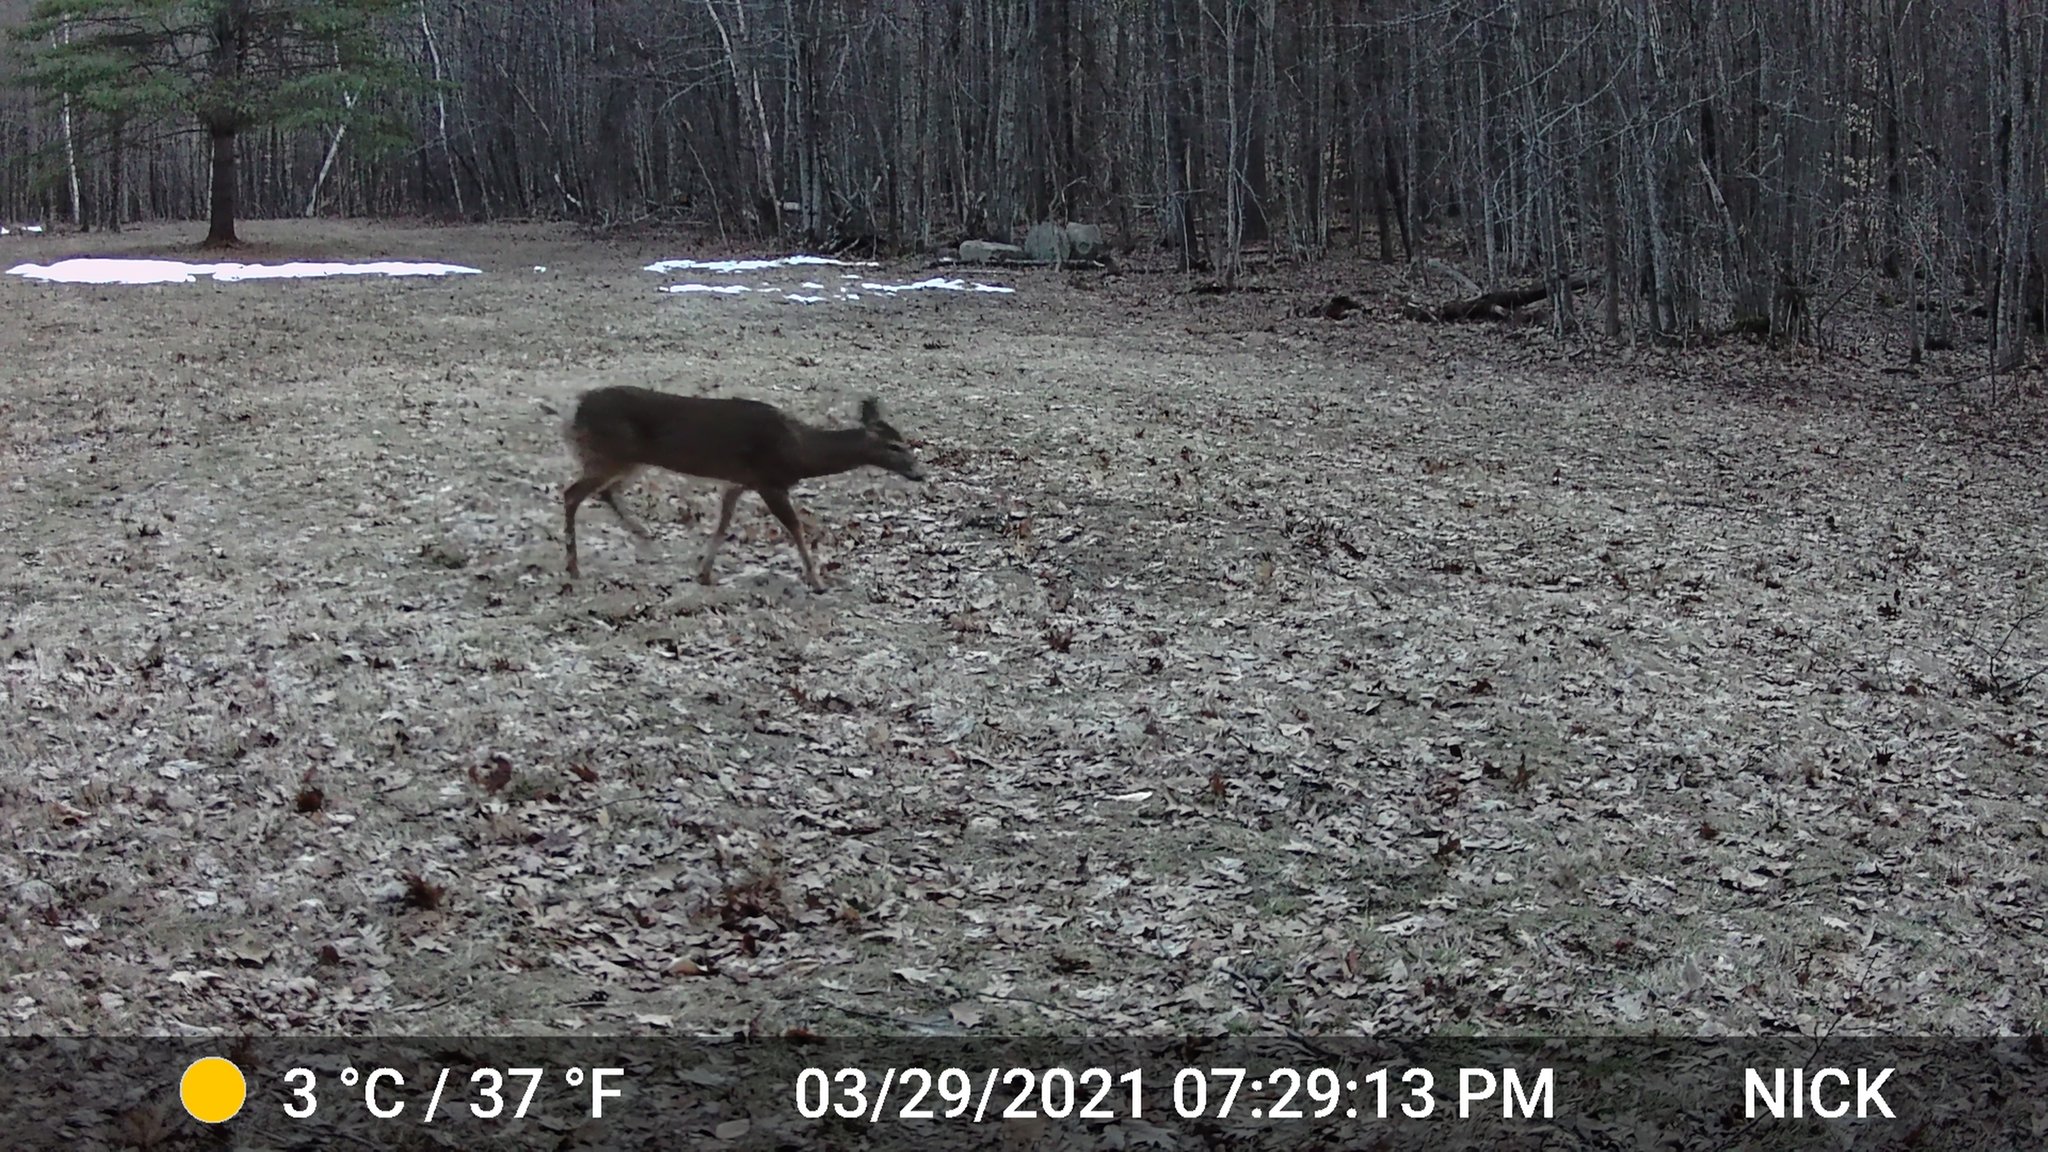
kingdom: Animalia
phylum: Chordata
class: Mammalia
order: Artiodactyla
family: Cervidae
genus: Odocoileus
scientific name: Odocoileus virginianus
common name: White-tailed deer
